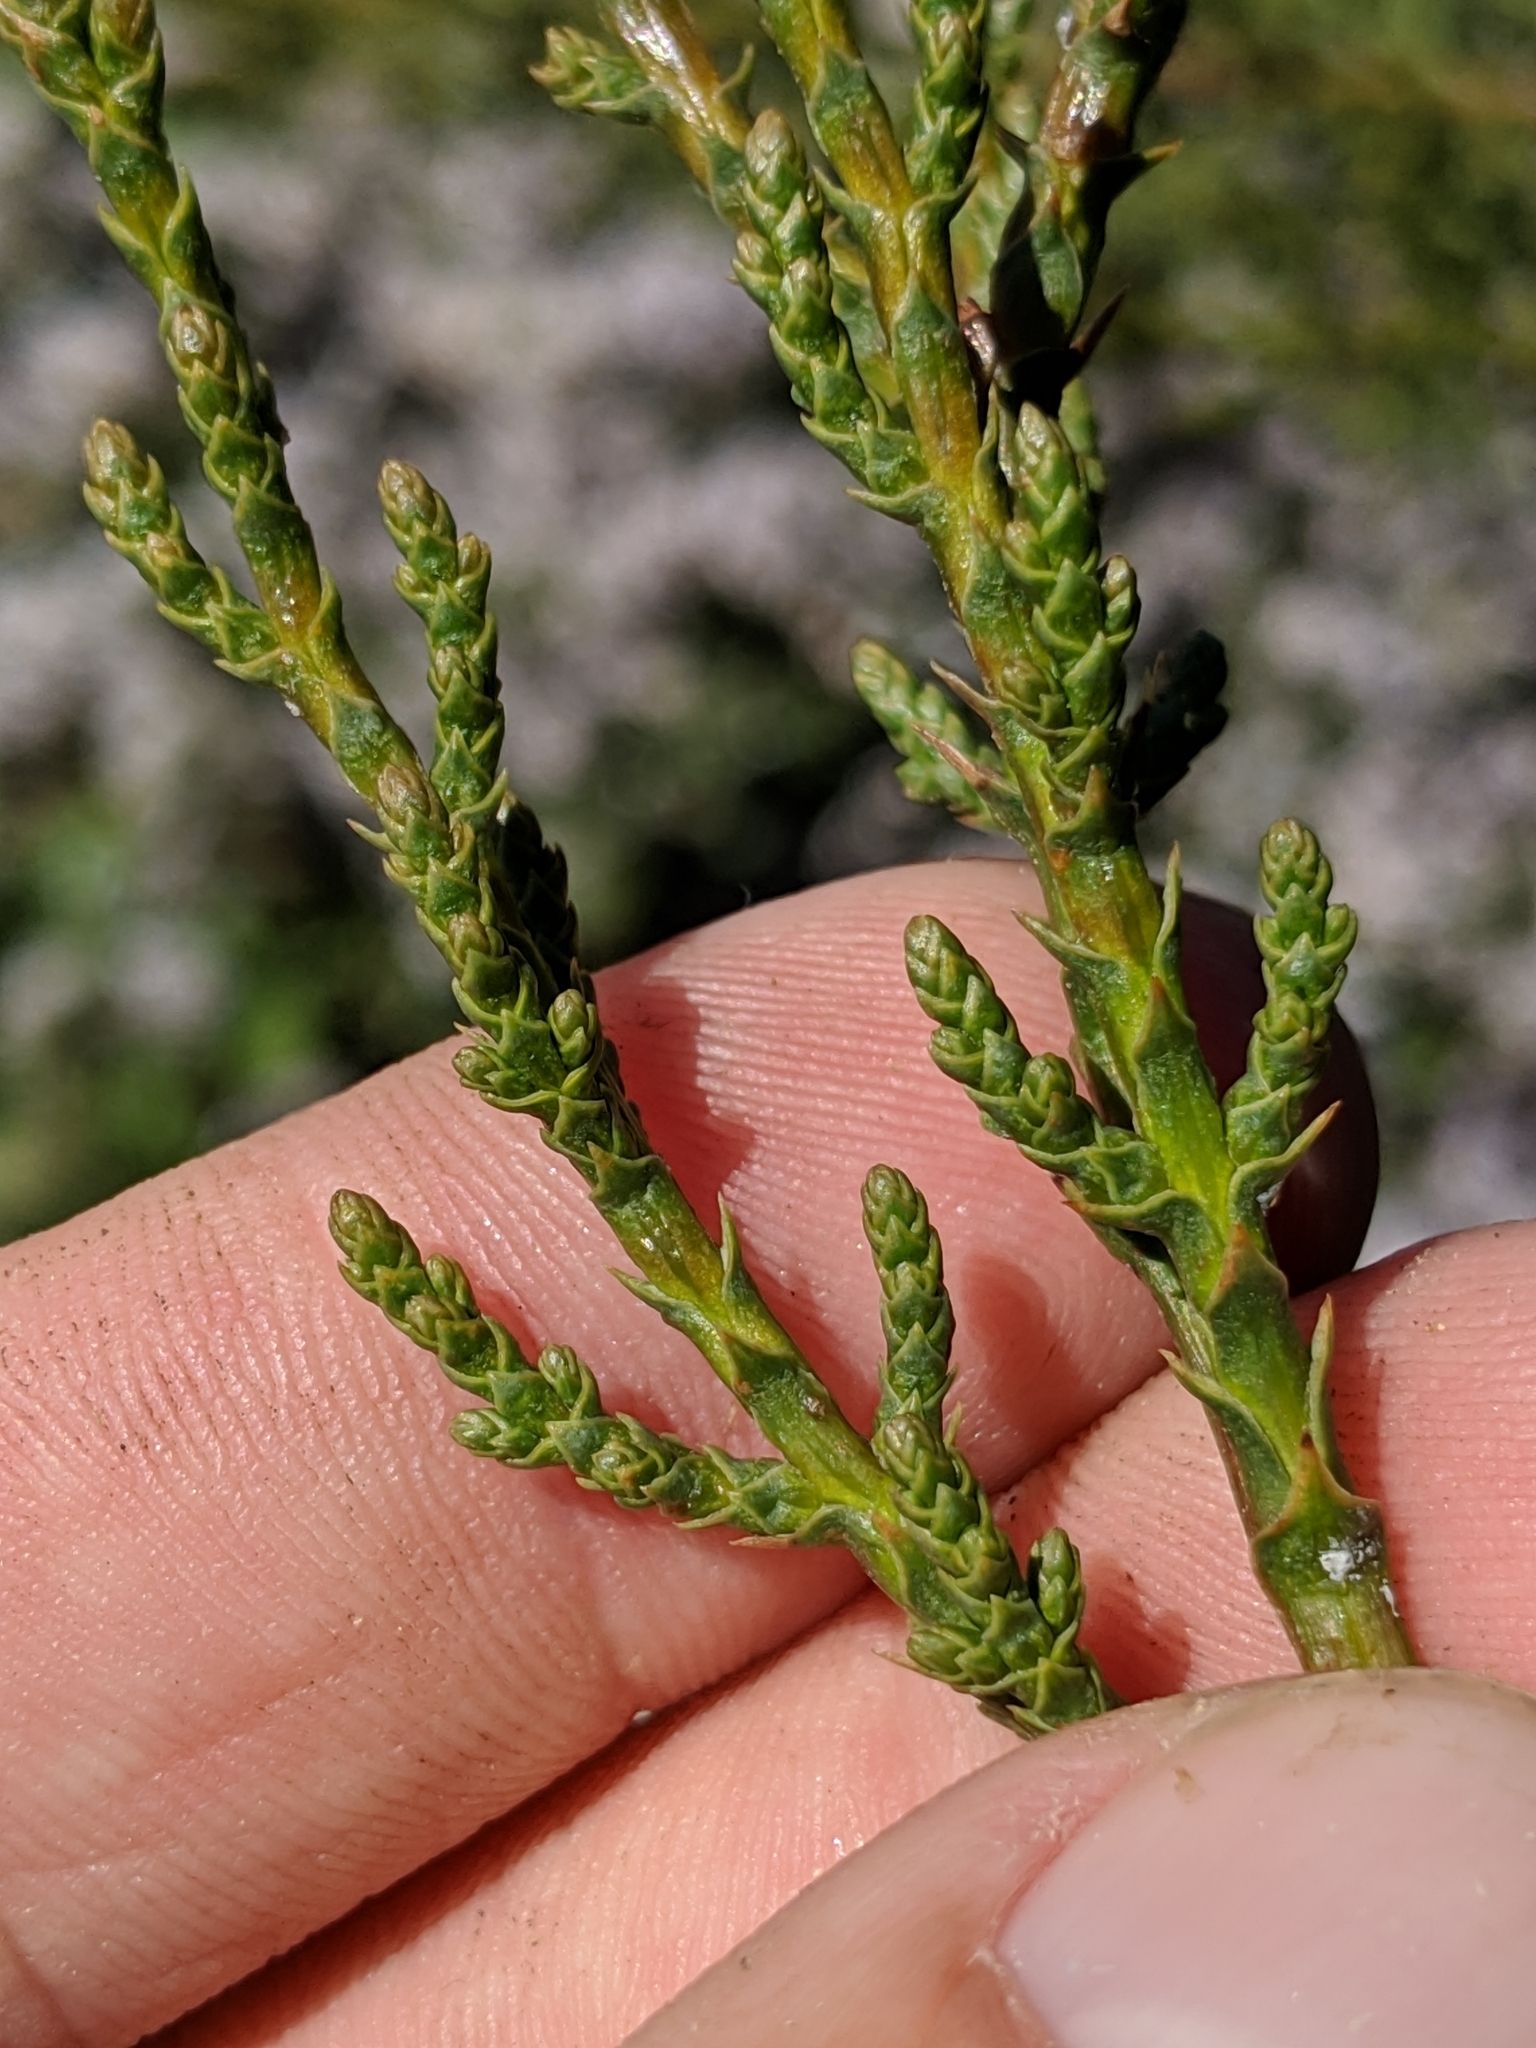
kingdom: Plantae
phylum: Tracheophyta
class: Pinopsida
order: Pinales
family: Cupressaceae
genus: Cupressus
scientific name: Cupressus sargentii
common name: Sargent cypress
